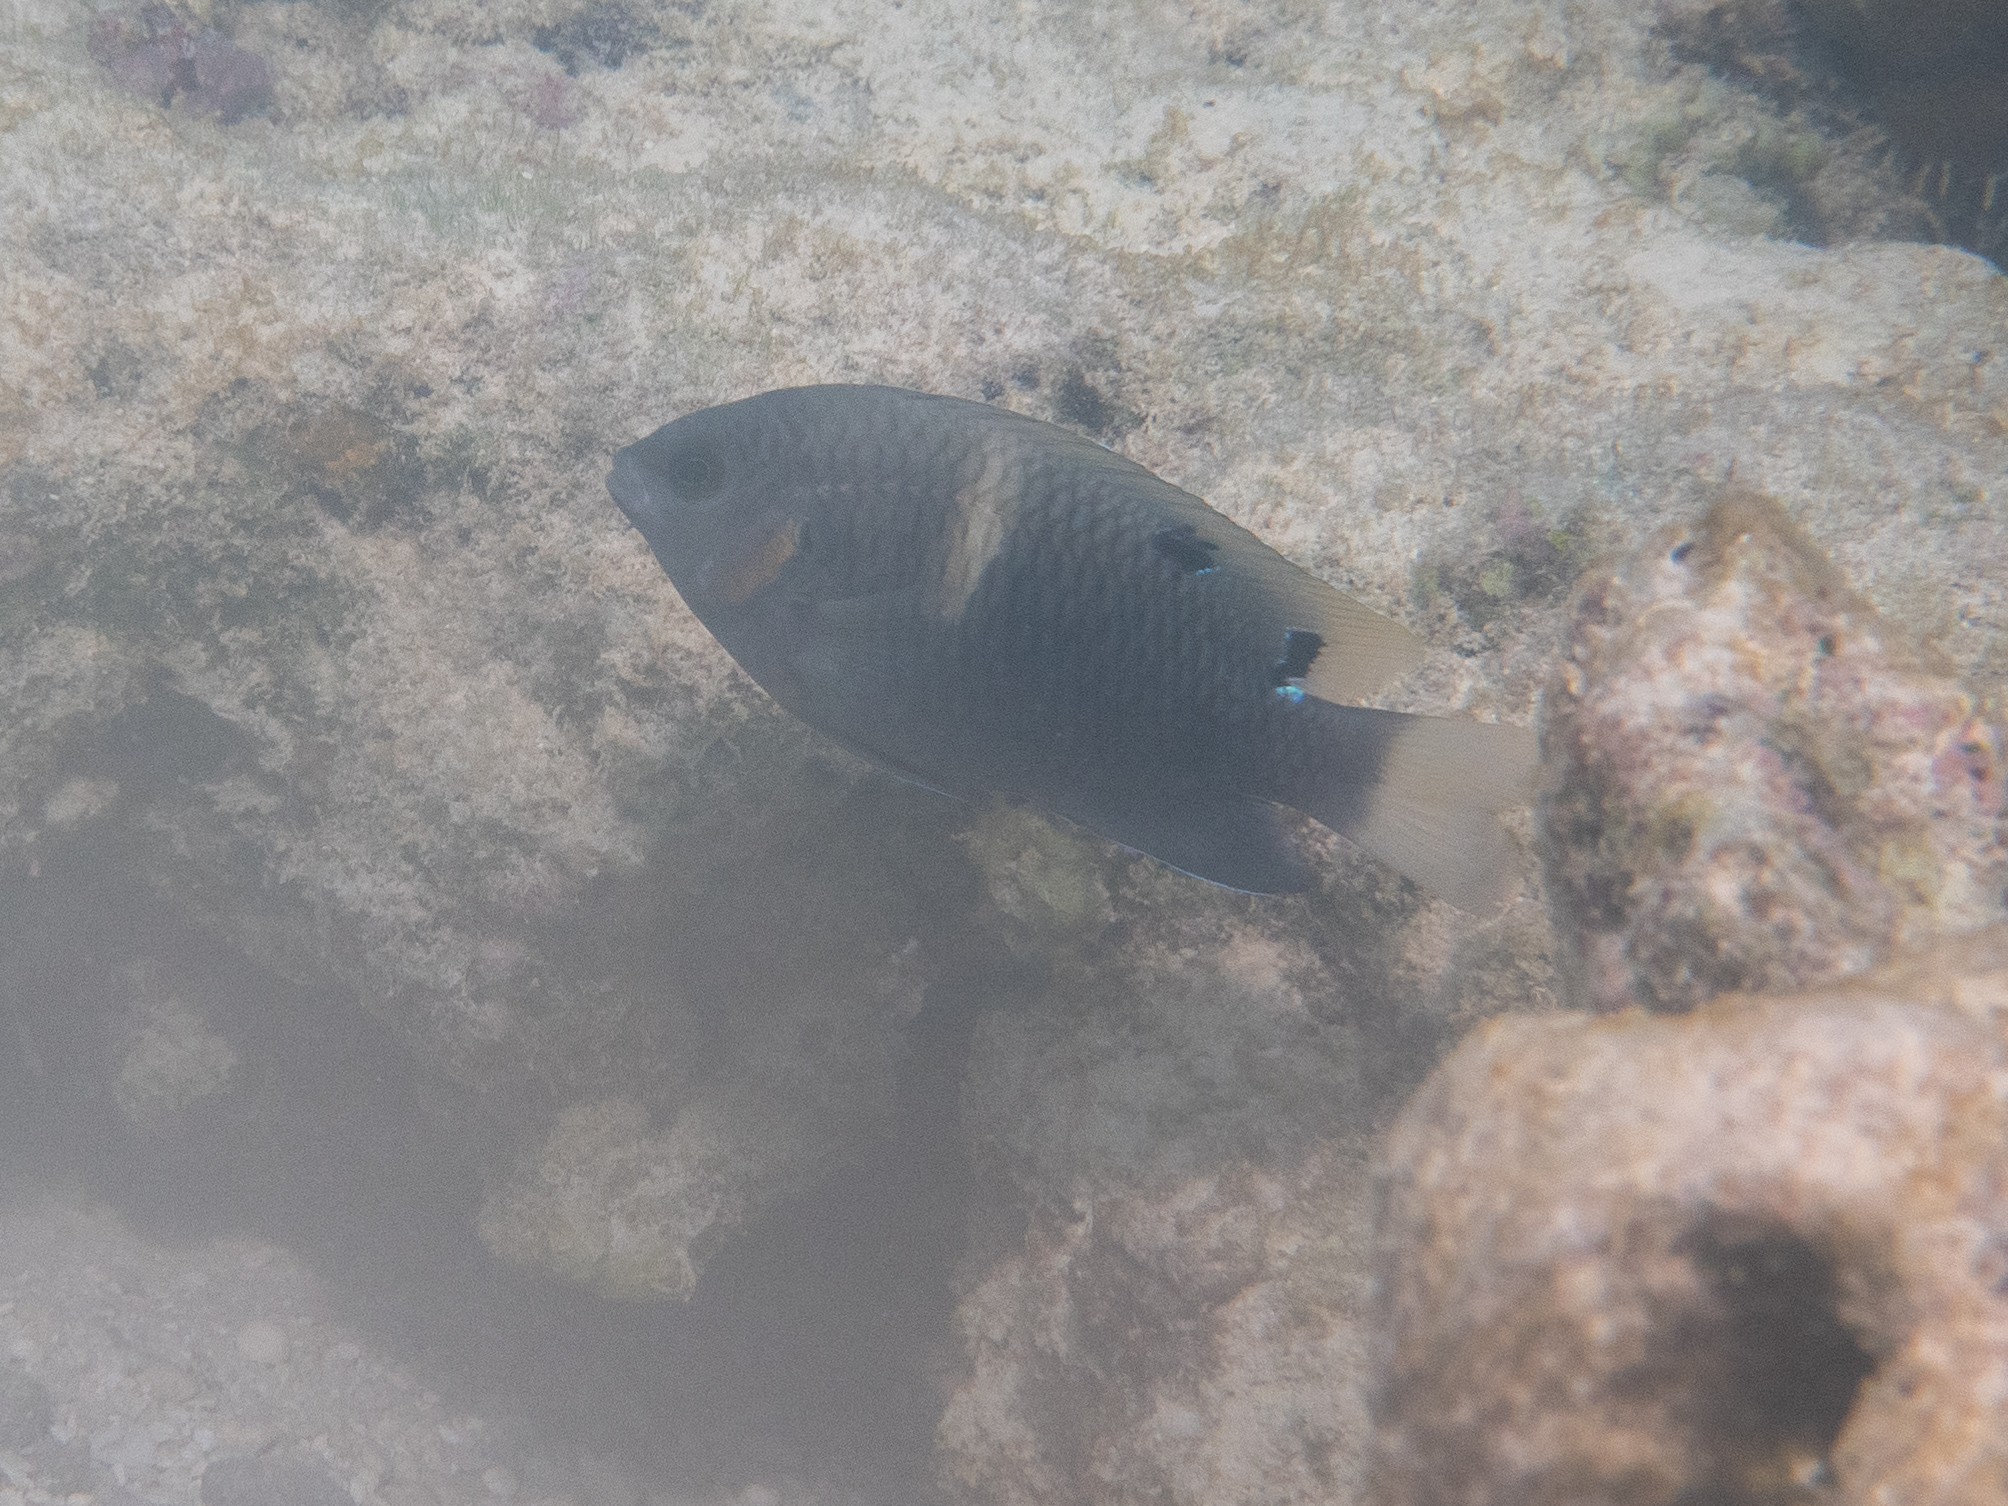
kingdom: Animalia
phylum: Chordata
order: Perciformes
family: Pomacentridae
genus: Chrysiptera
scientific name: Chrysiptera biocellata
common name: Twinspot damselfish
